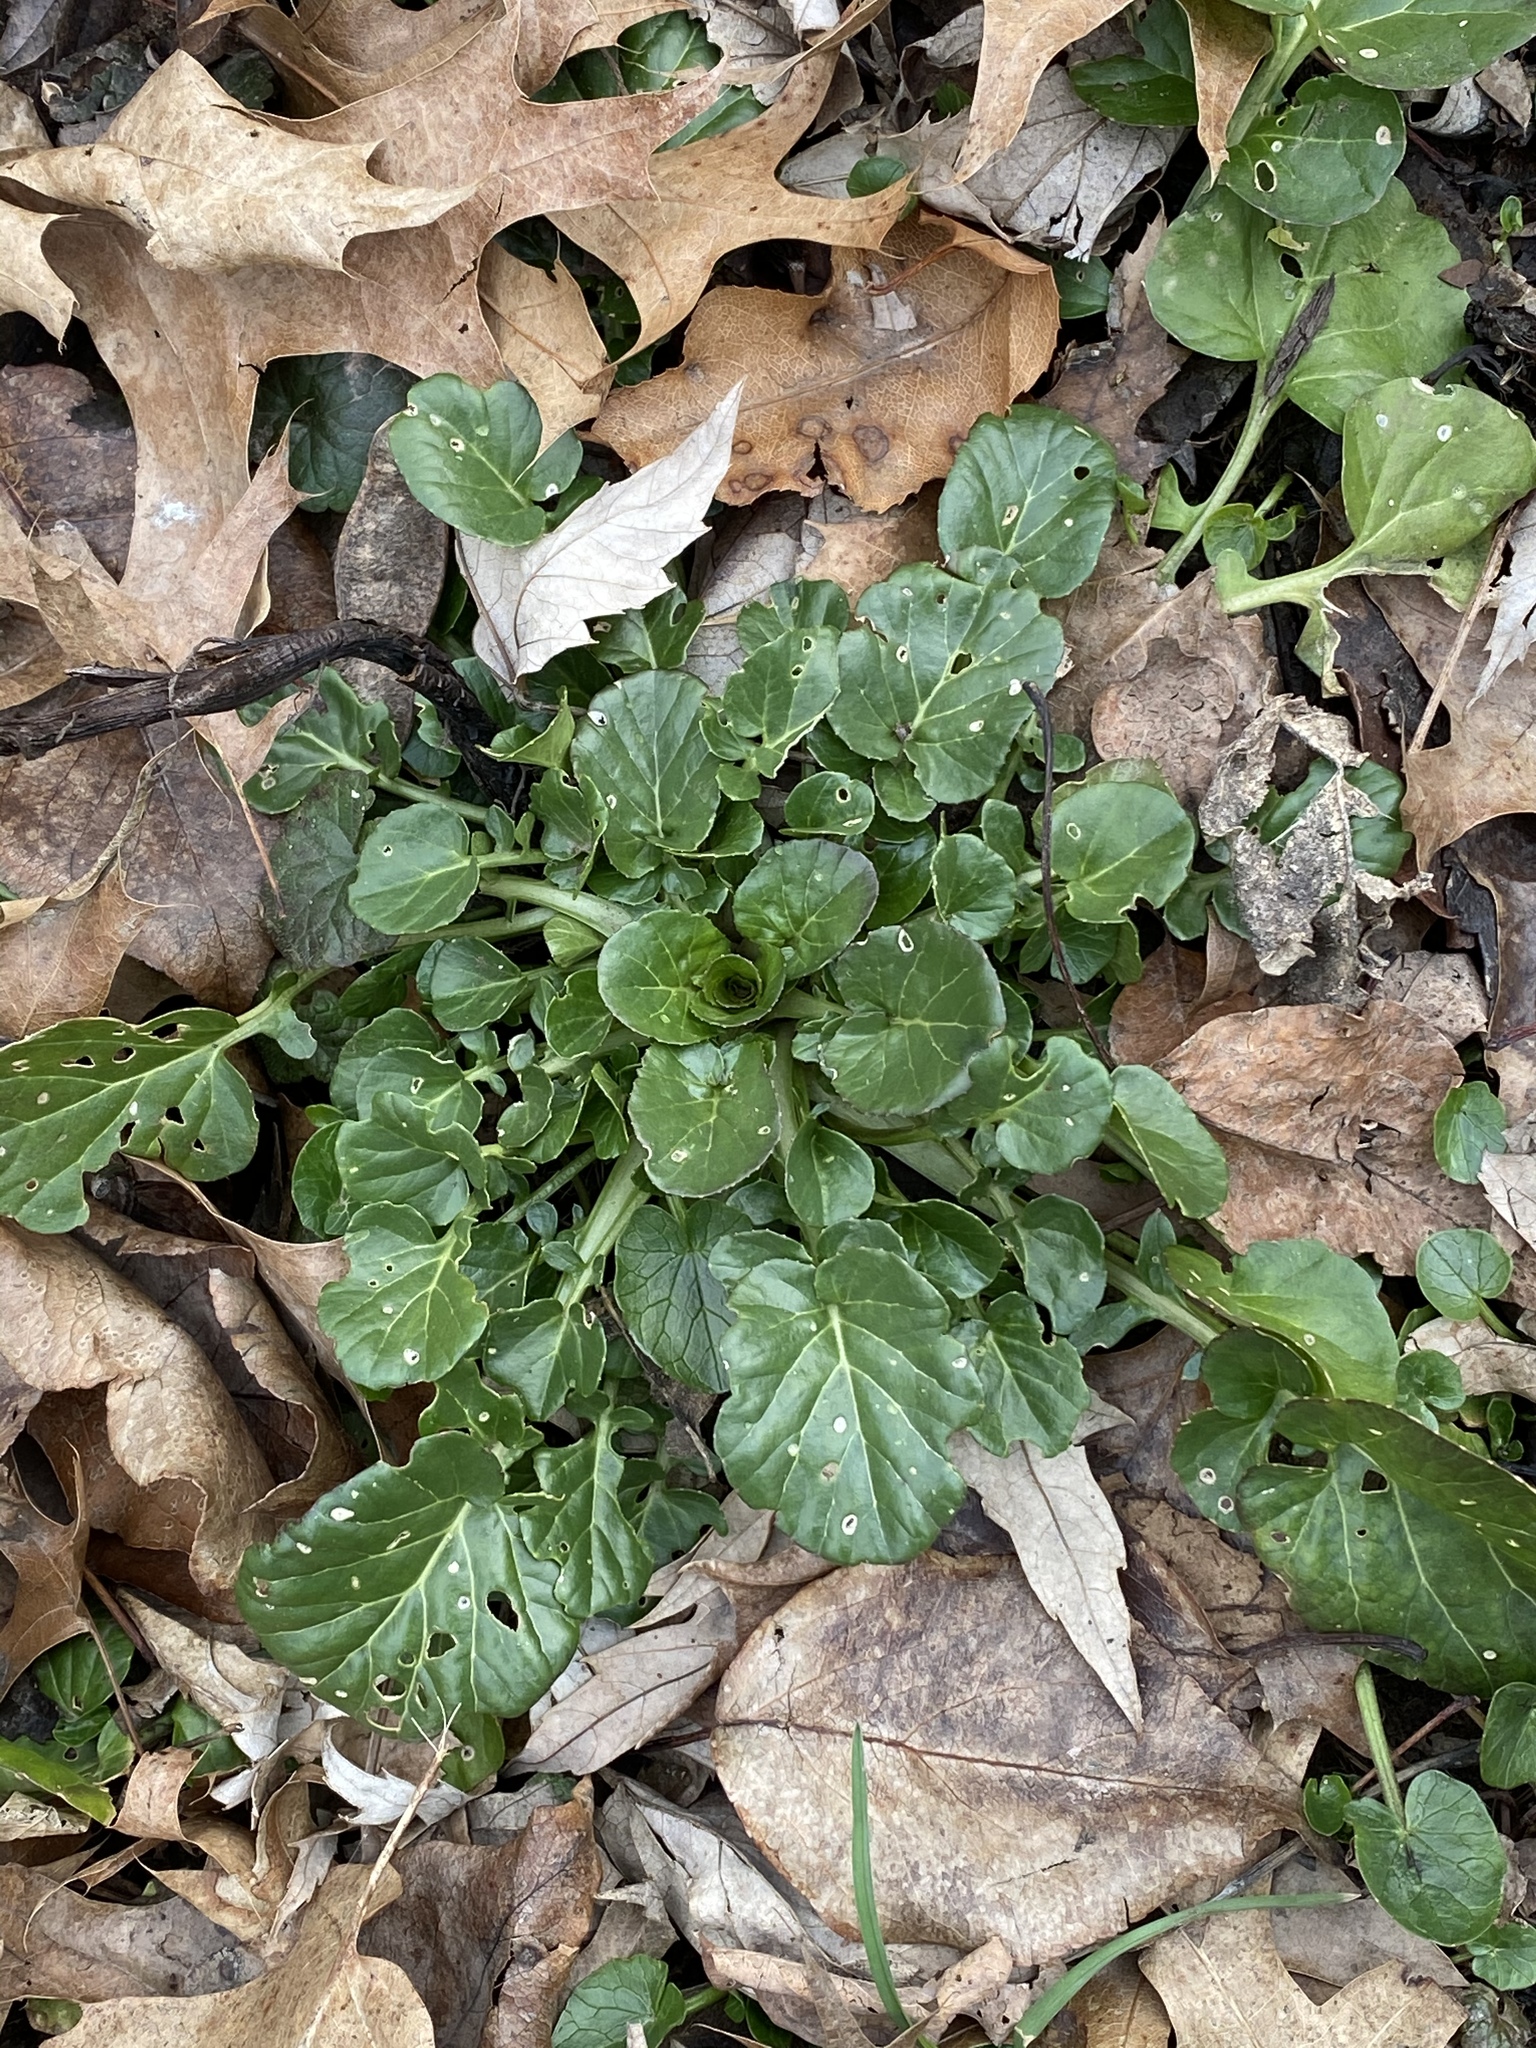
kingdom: Plantae
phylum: Tracheophyta
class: Magnoliopsida
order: Brassicales
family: Brassicaceae
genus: Barbarea
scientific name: Barbarea vulgaris
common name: Cressy-greens
